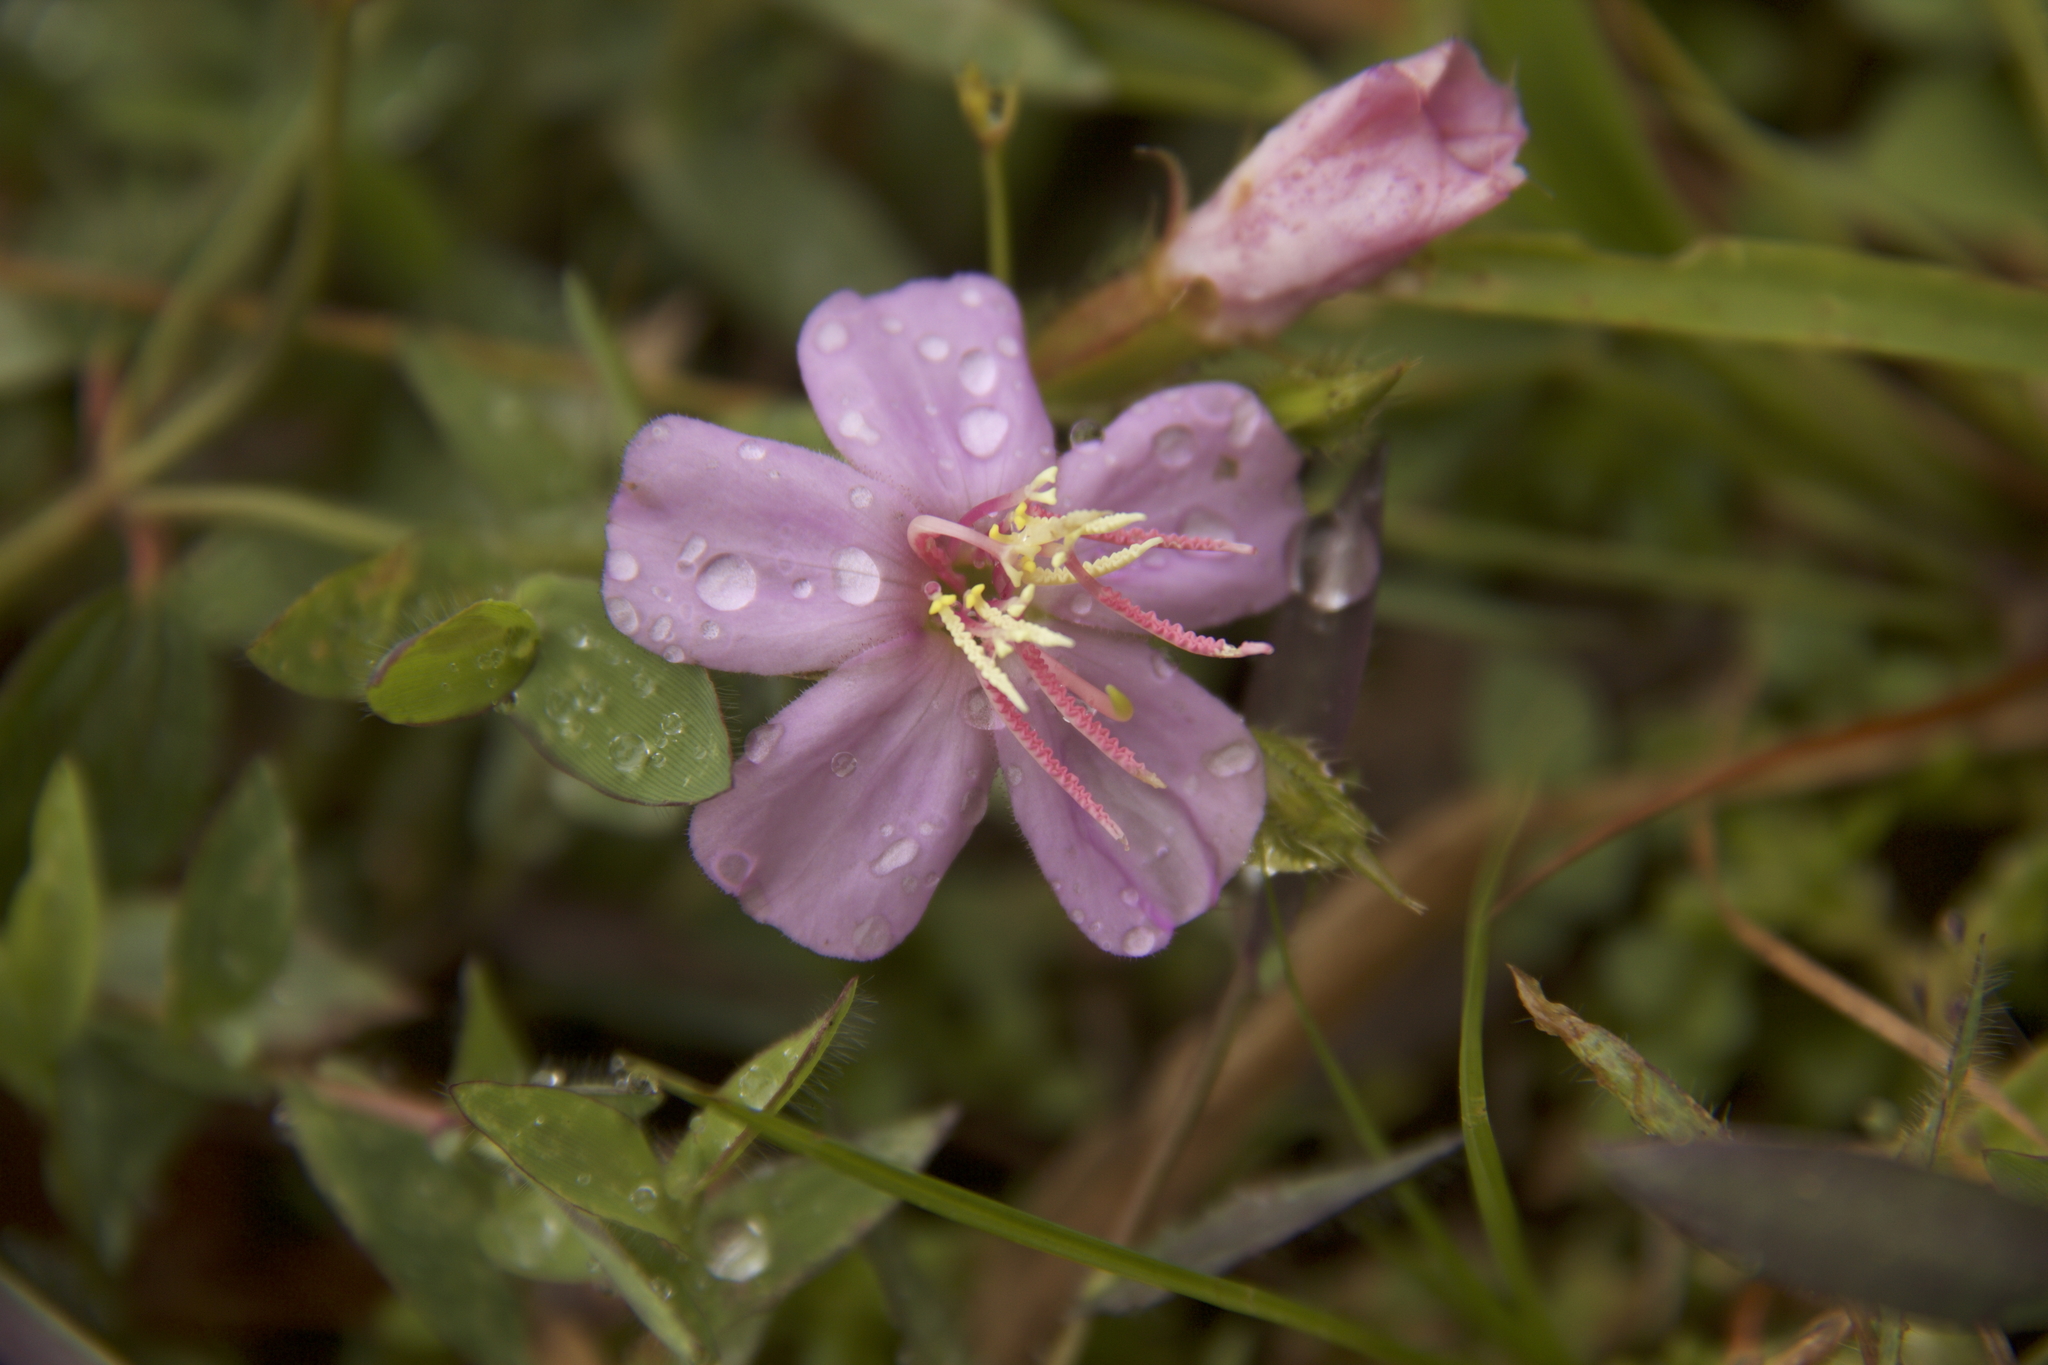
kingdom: Plantae
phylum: Tracheophyta
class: Magnoliopsida
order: Myrtales
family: Melastomataceae
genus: Pterogastra
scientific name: Pterogastra divaricata
